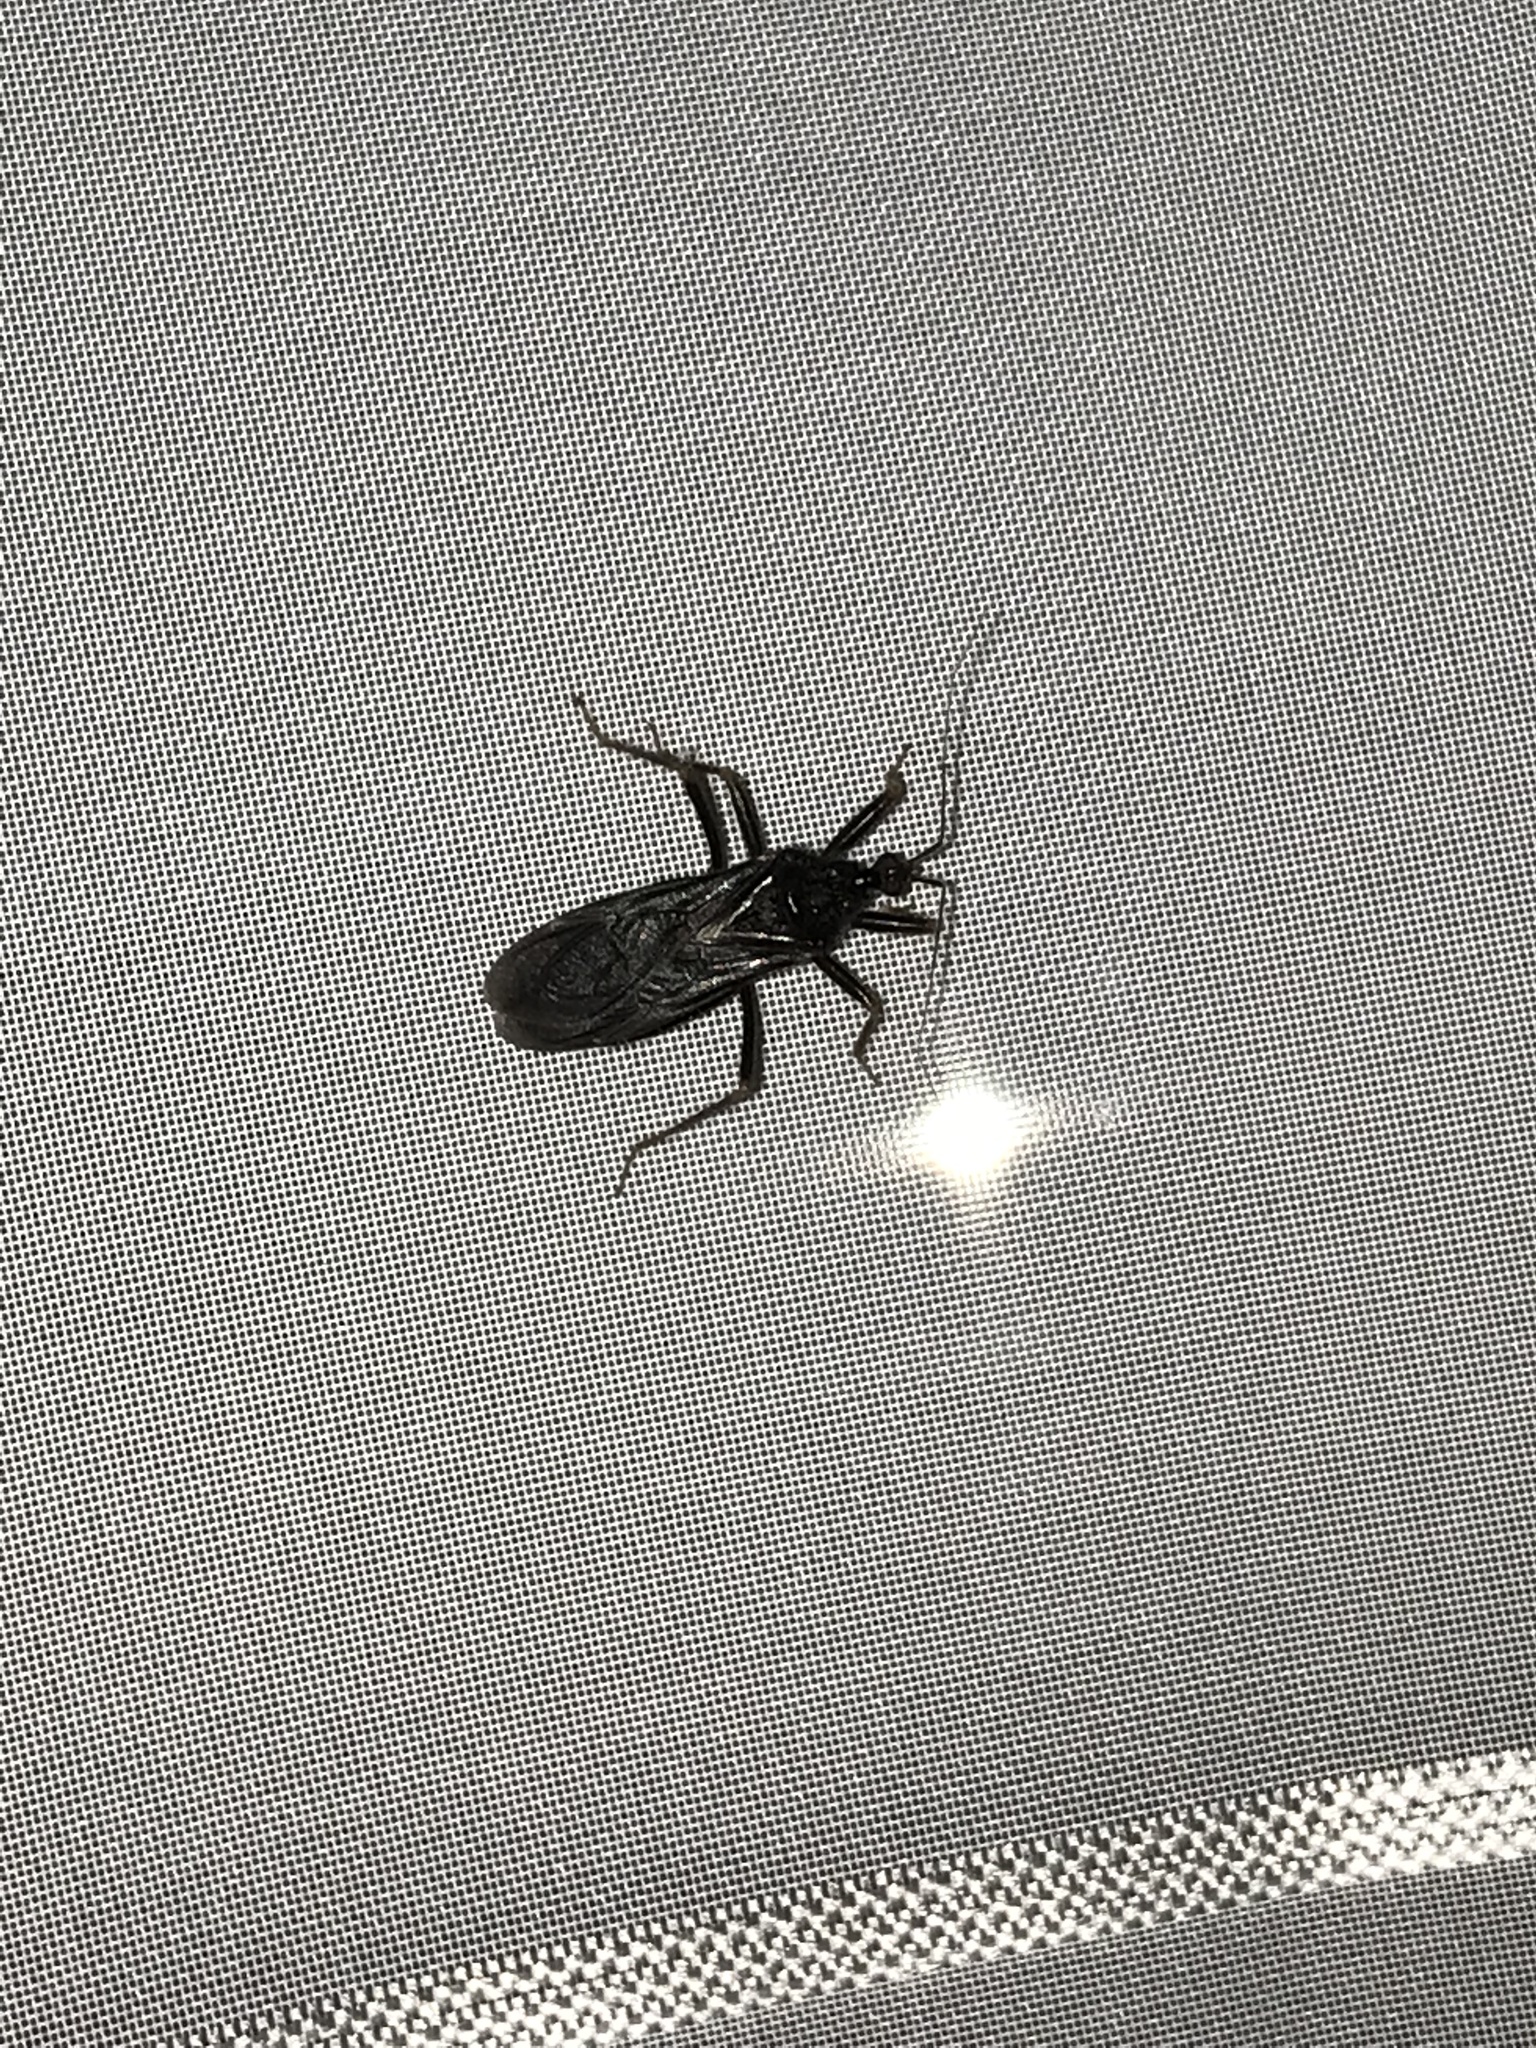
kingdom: Animalia
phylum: Arthropoda
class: Insecta
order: Hemiptera
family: Reduviidae
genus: Reduvius
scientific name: Reduvius personatus
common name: Masked hunter
